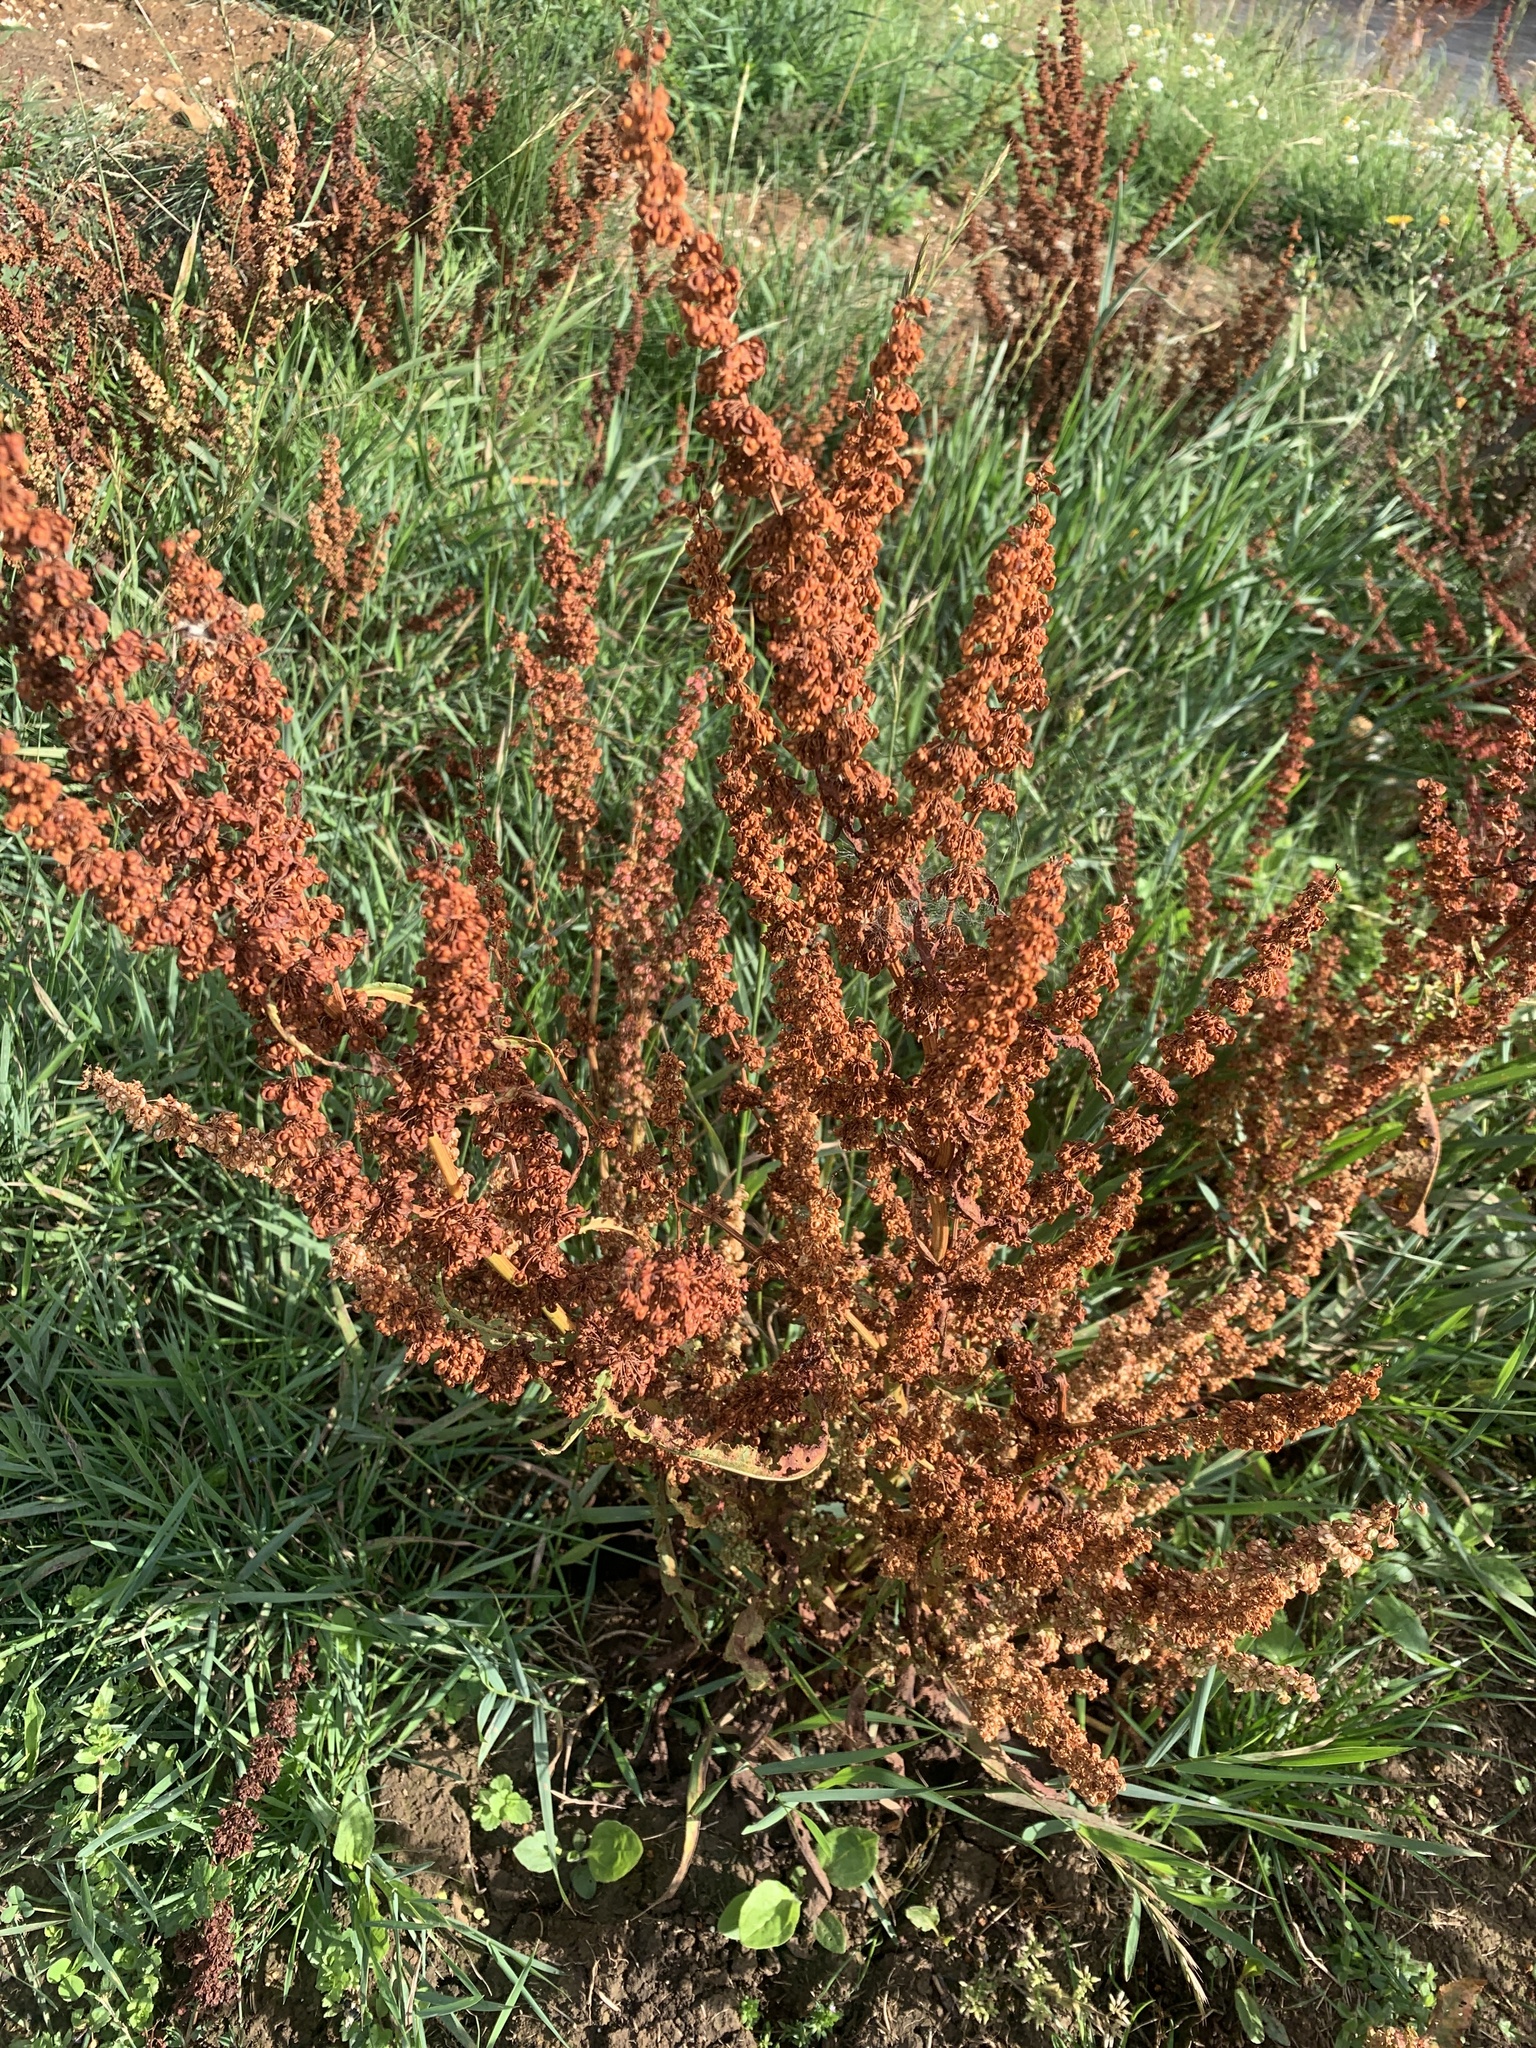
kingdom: Plantae
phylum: Tracheophyta
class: Magnoliopsida
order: Caryophyllales
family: Polygonaceae
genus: Rumex
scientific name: Rumex crispus
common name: Curled dock
